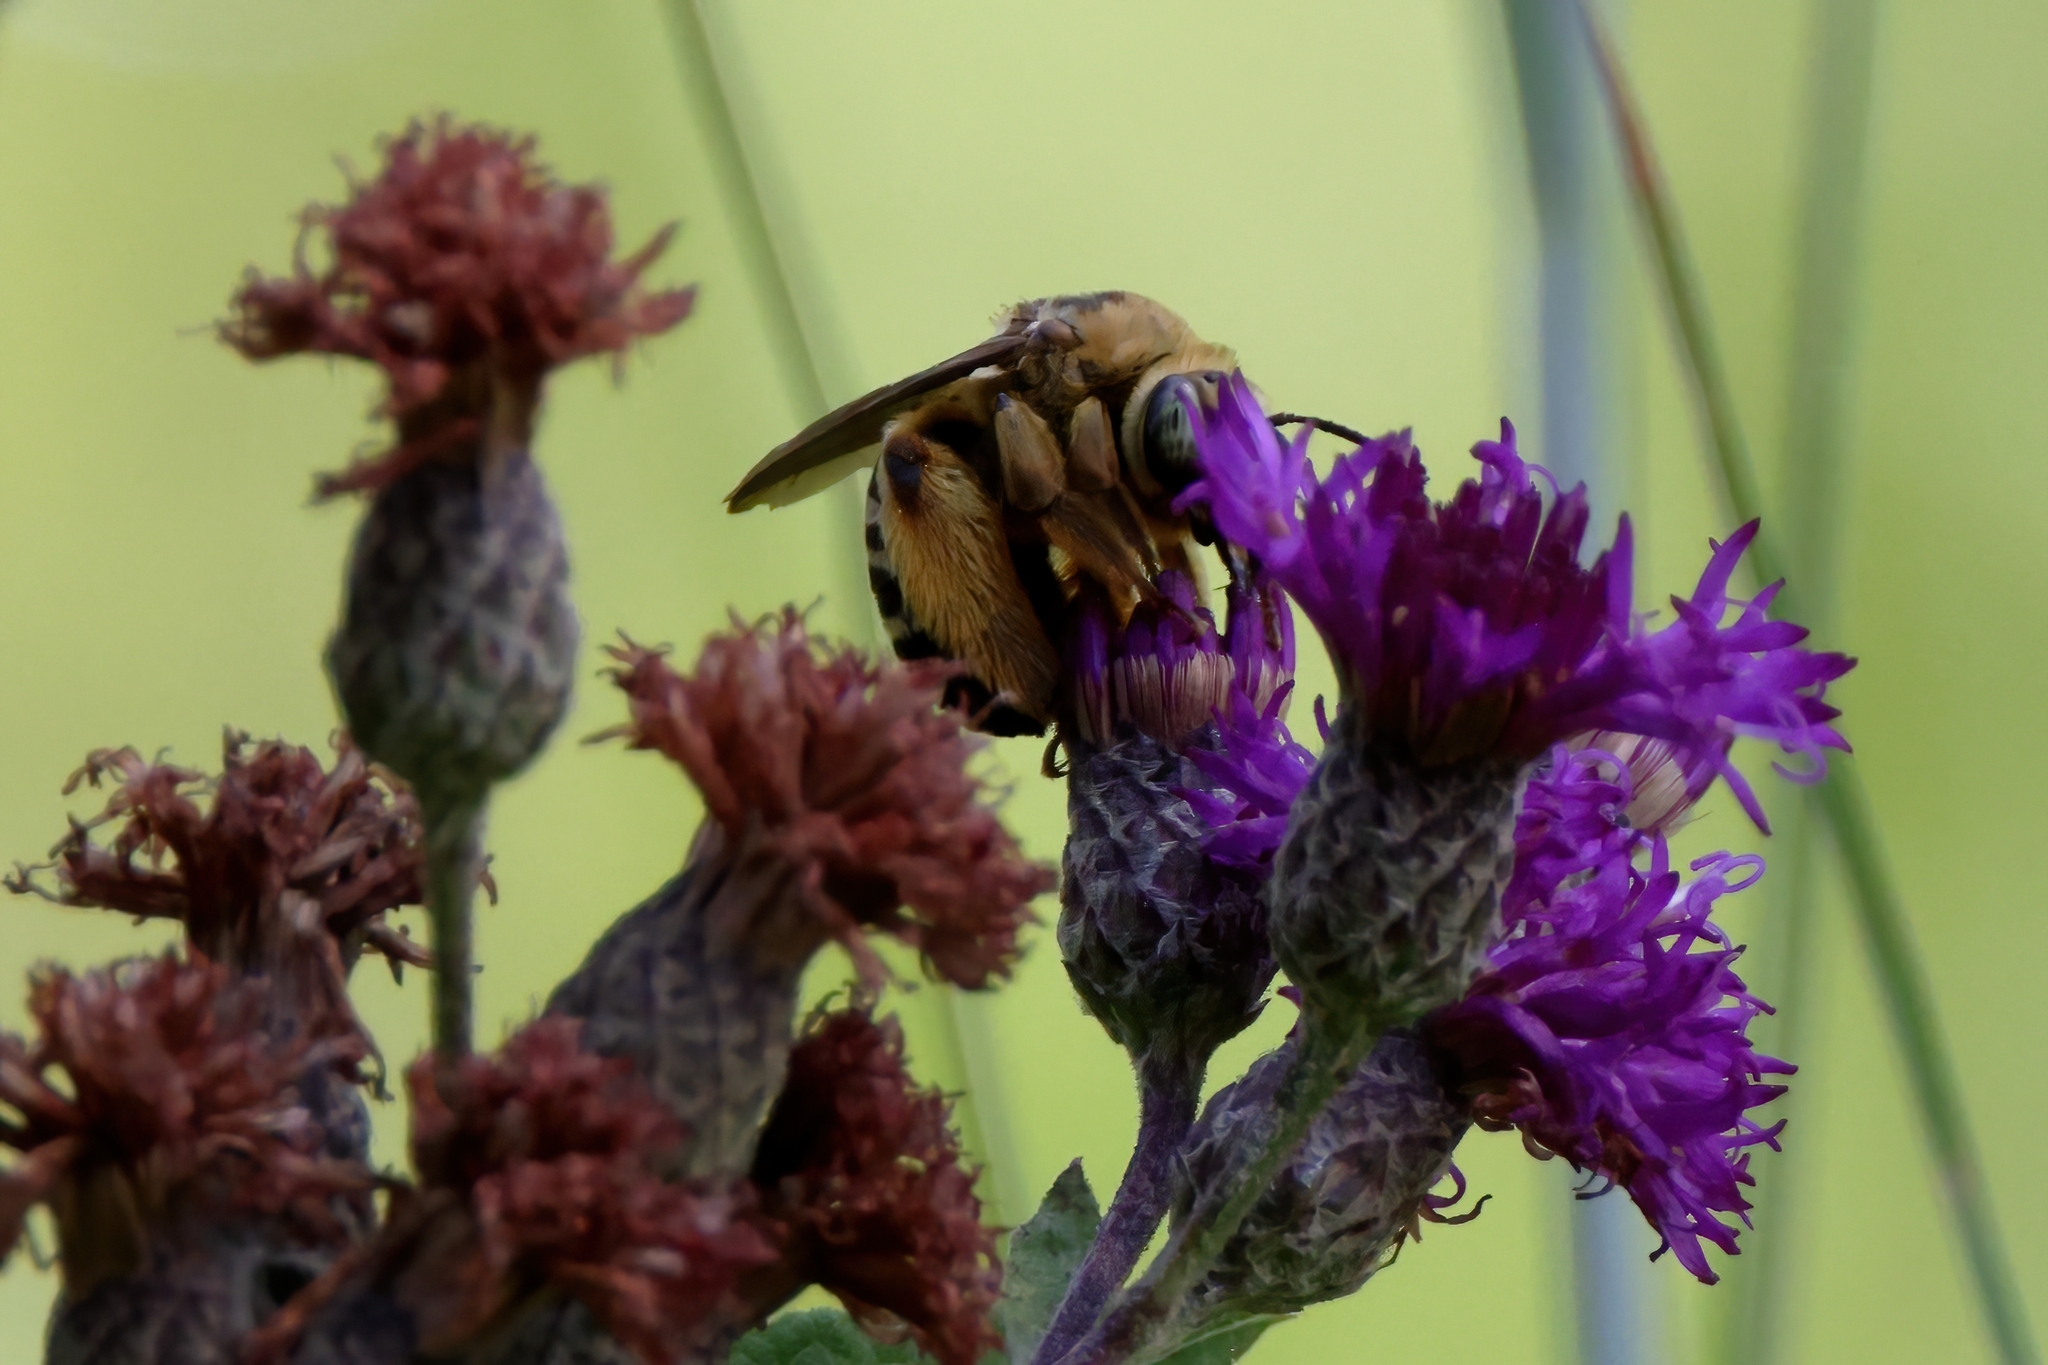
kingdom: Animalia
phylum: Arthropoda
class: Insecta
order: Hymenoptera
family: Apidae
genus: Svastra
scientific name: Svastra aegis
